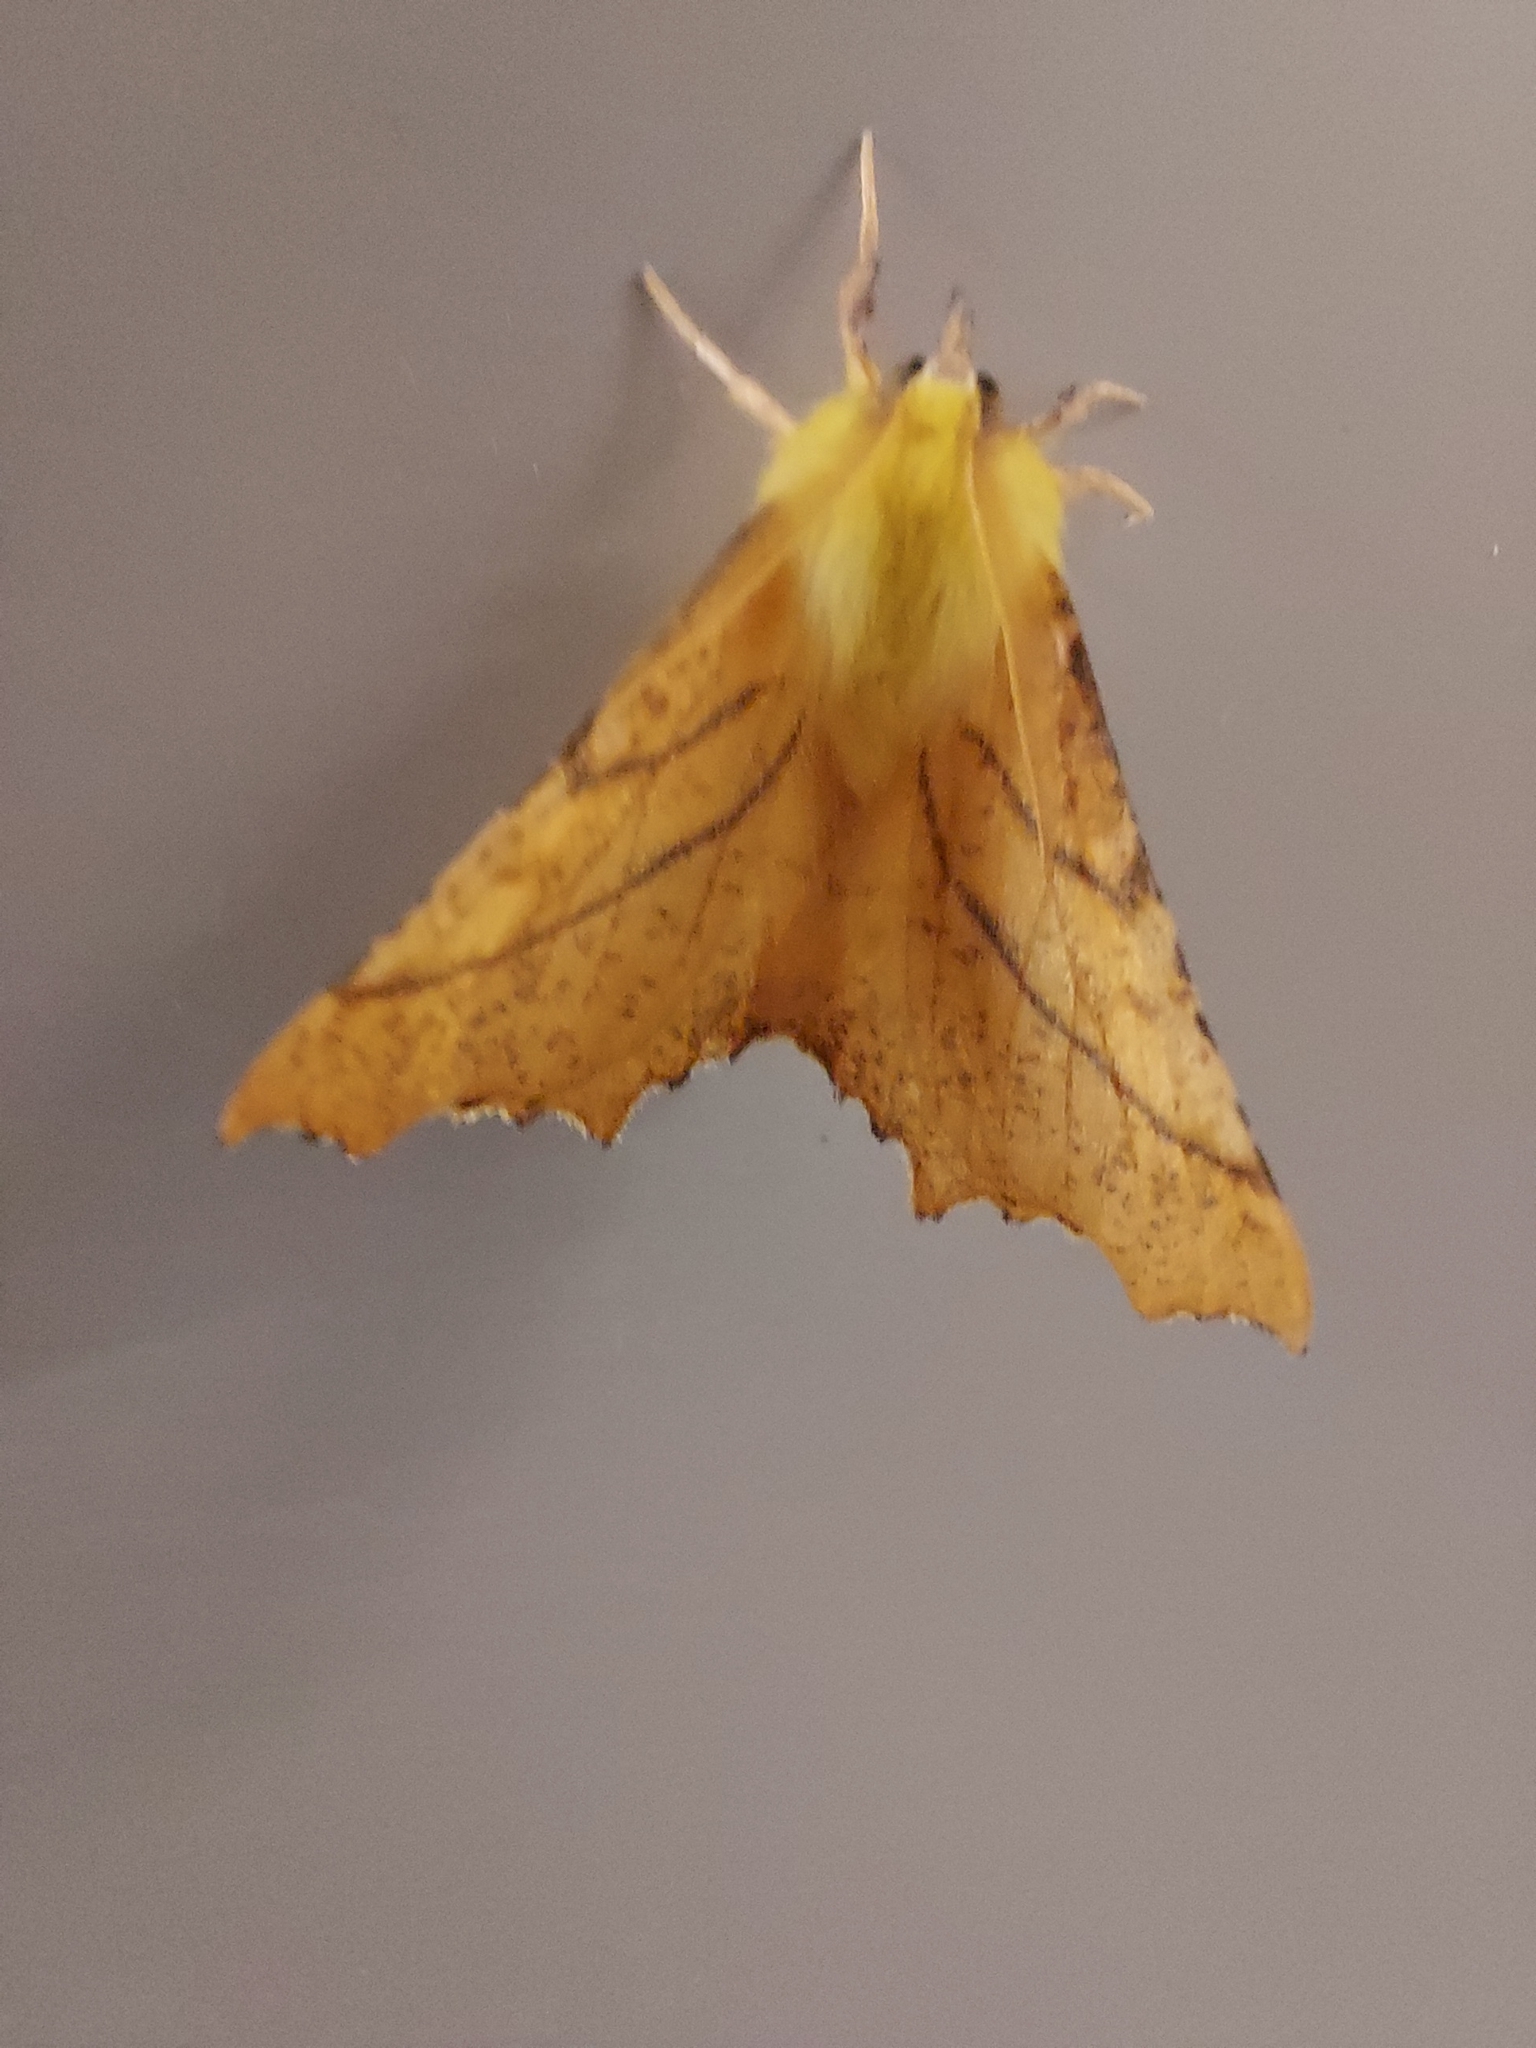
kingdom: Animalia
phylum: Arthropoda
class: Insecta
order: Lepidoptera
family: Geometridae
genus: Ennomos
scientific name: Ennomos alniaria
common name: Canary-shouldered thorn
